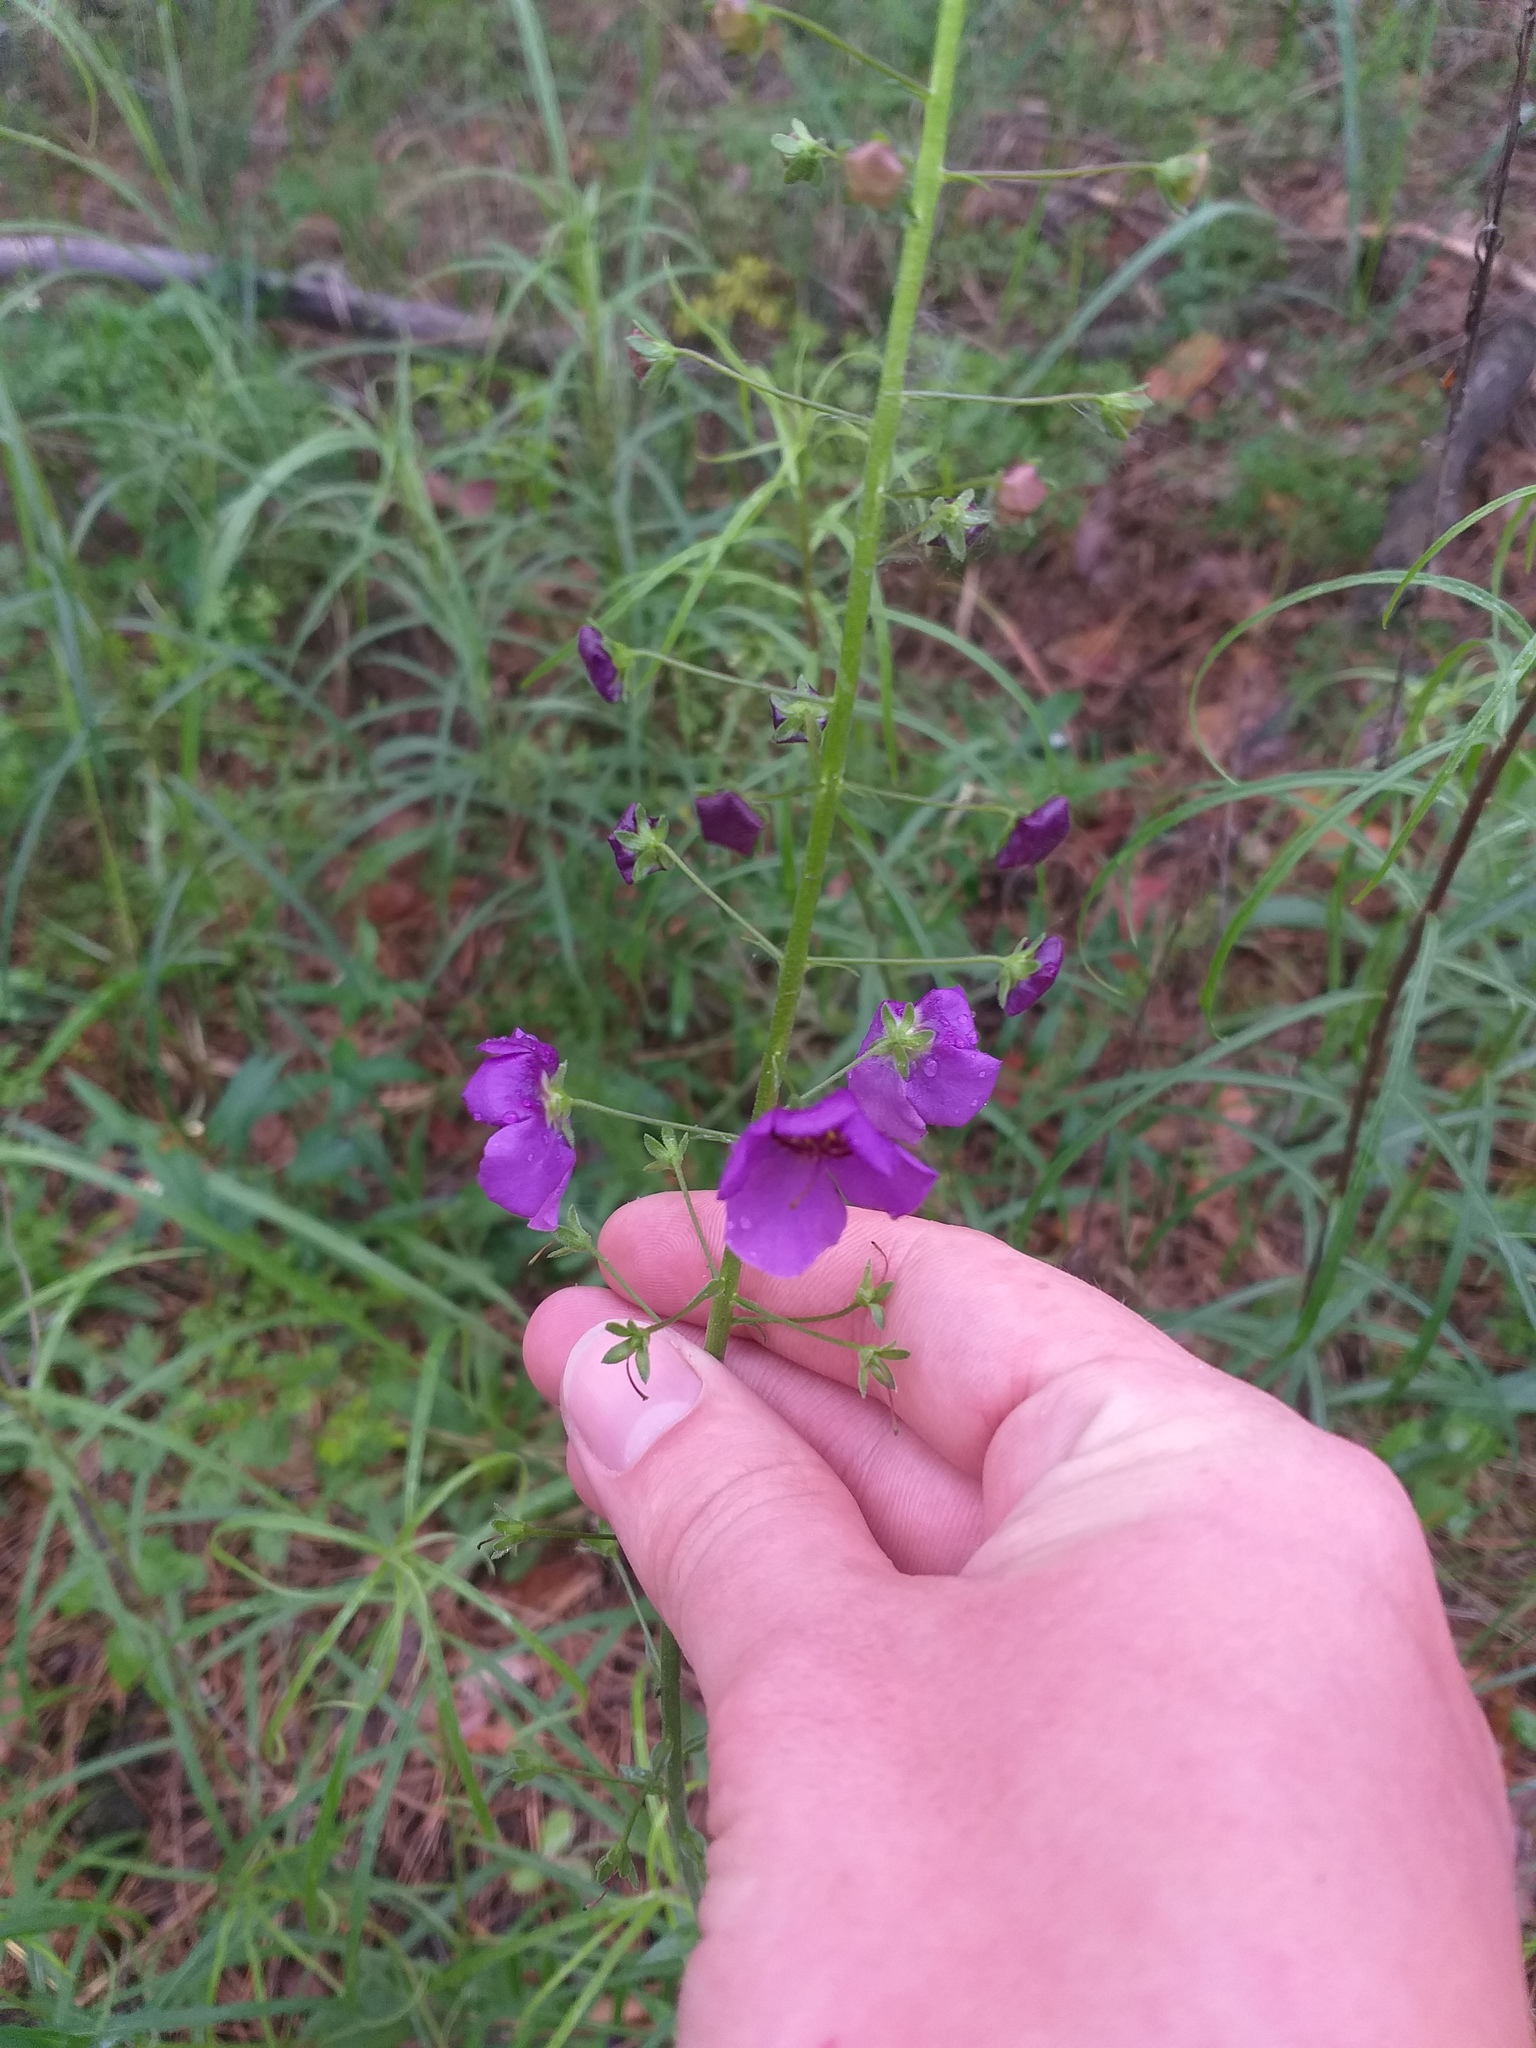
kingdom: Plantae
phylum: Tracheophyta
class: Magnoliopsida
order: Lamiales
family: Scrophulariaceae
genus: Verbascum
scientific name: Verbascum phoeniceum
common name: Purple mullein
